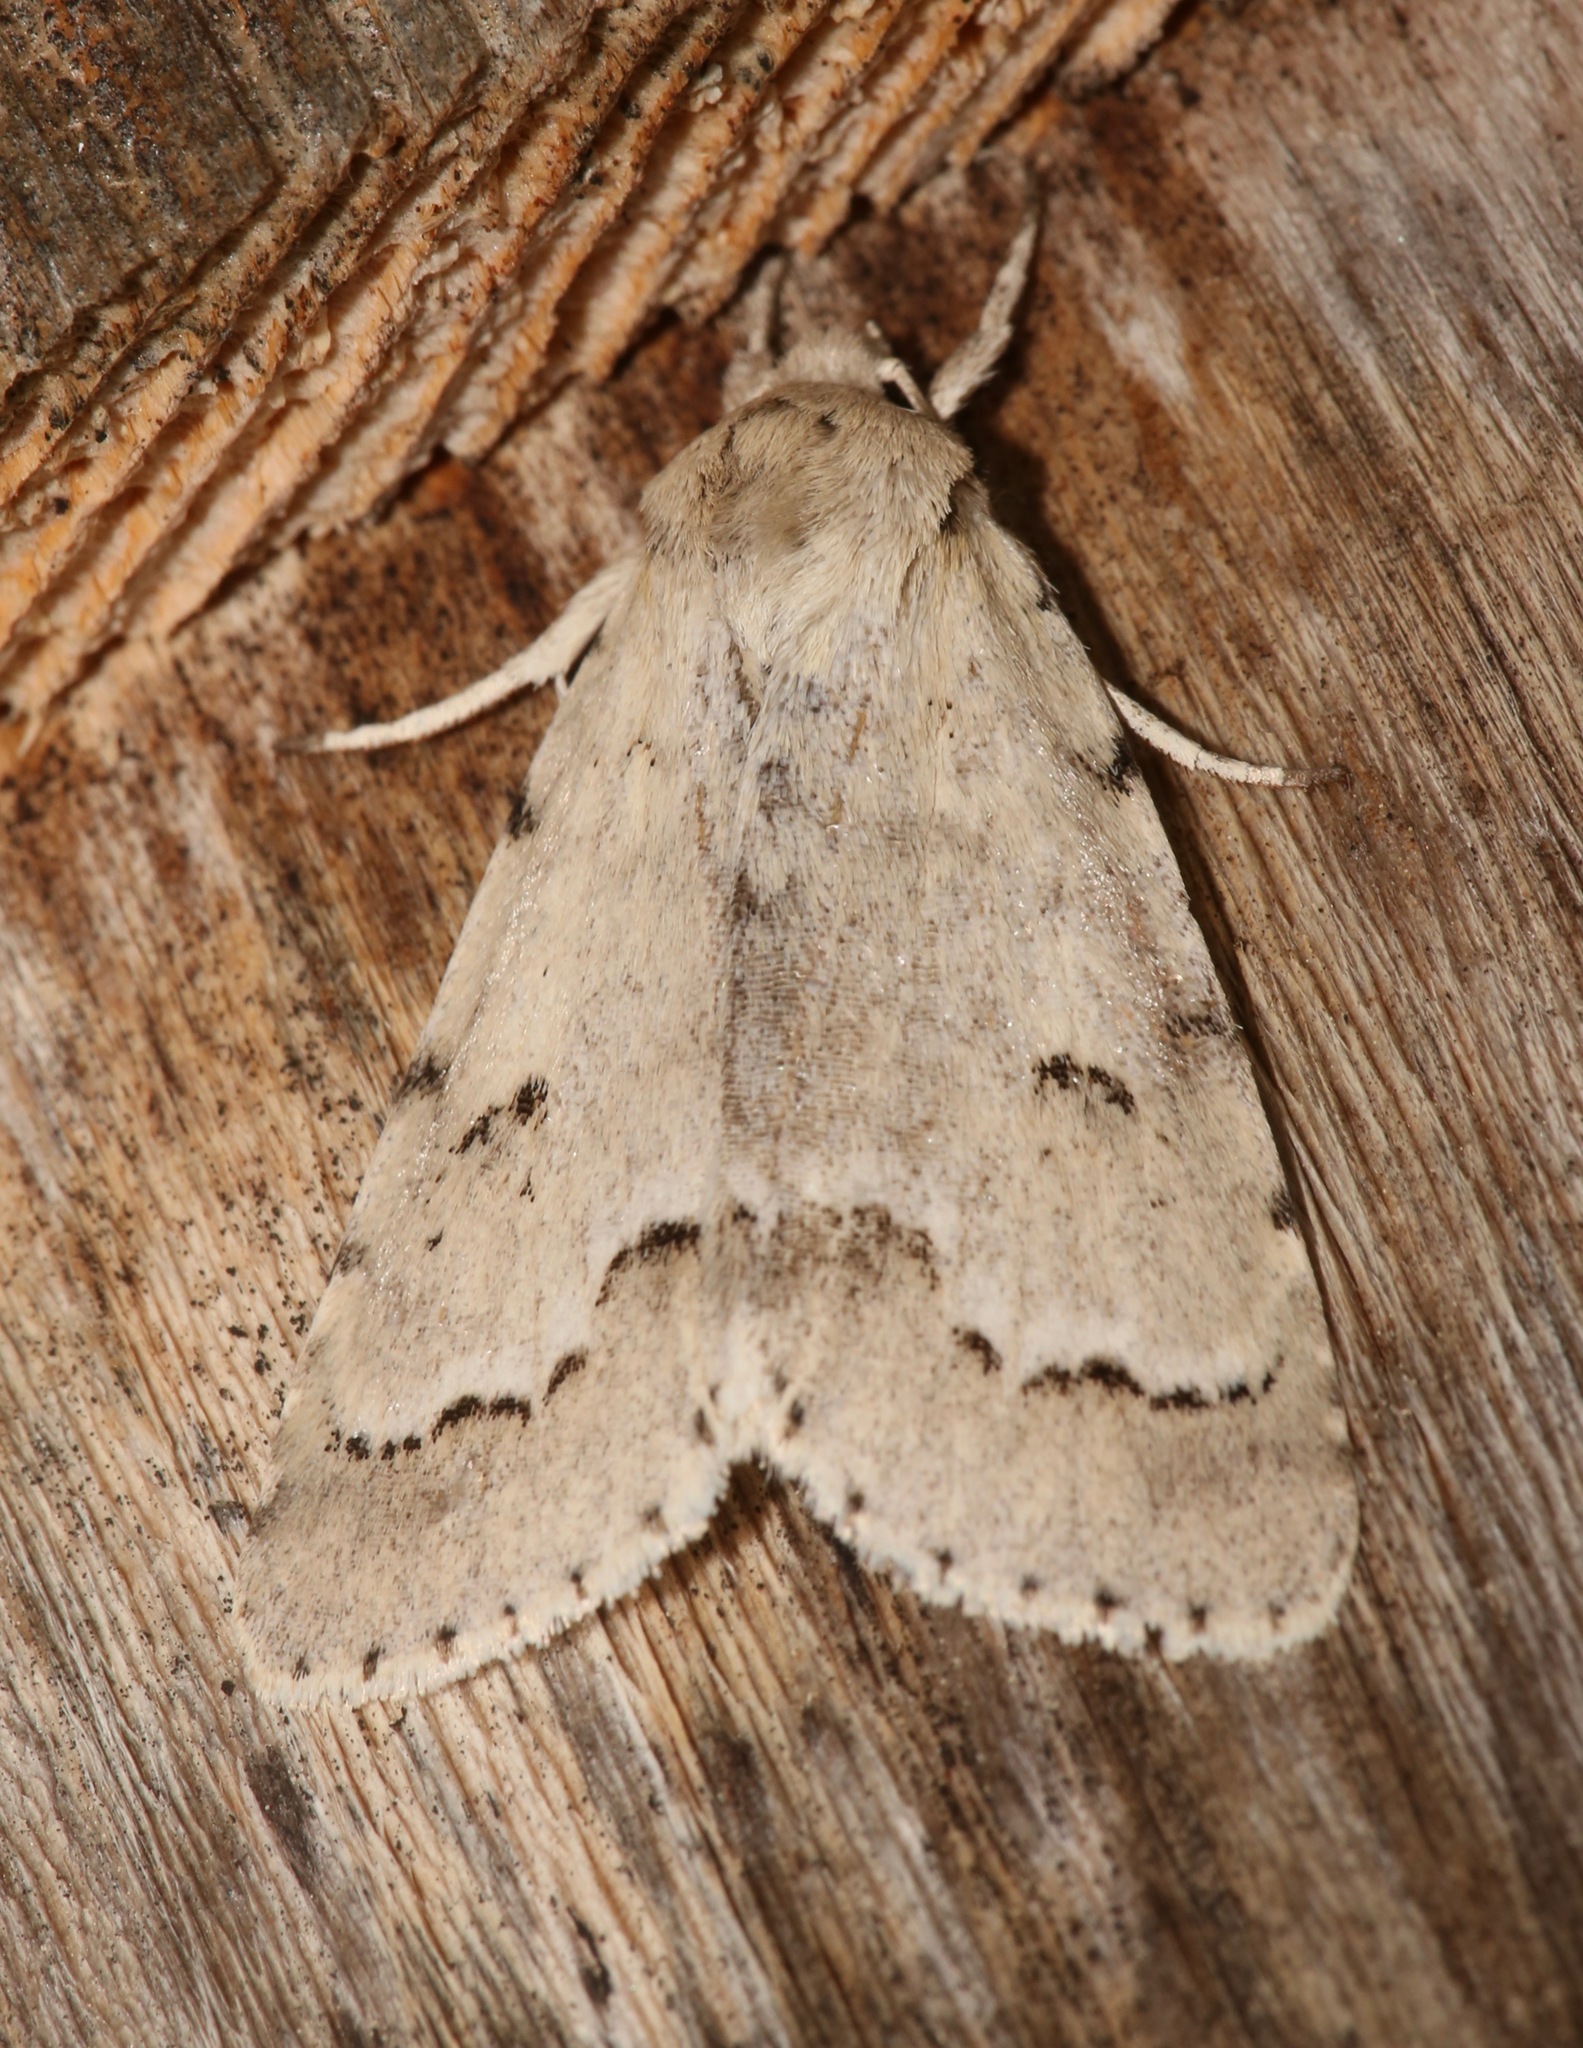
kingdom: Animalia
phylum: Arthropoda
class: Insecta
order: Lepidoptera
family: Noctuidae
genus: Acronicta
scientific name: Acronicta innotata
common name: Unmarked dagger
